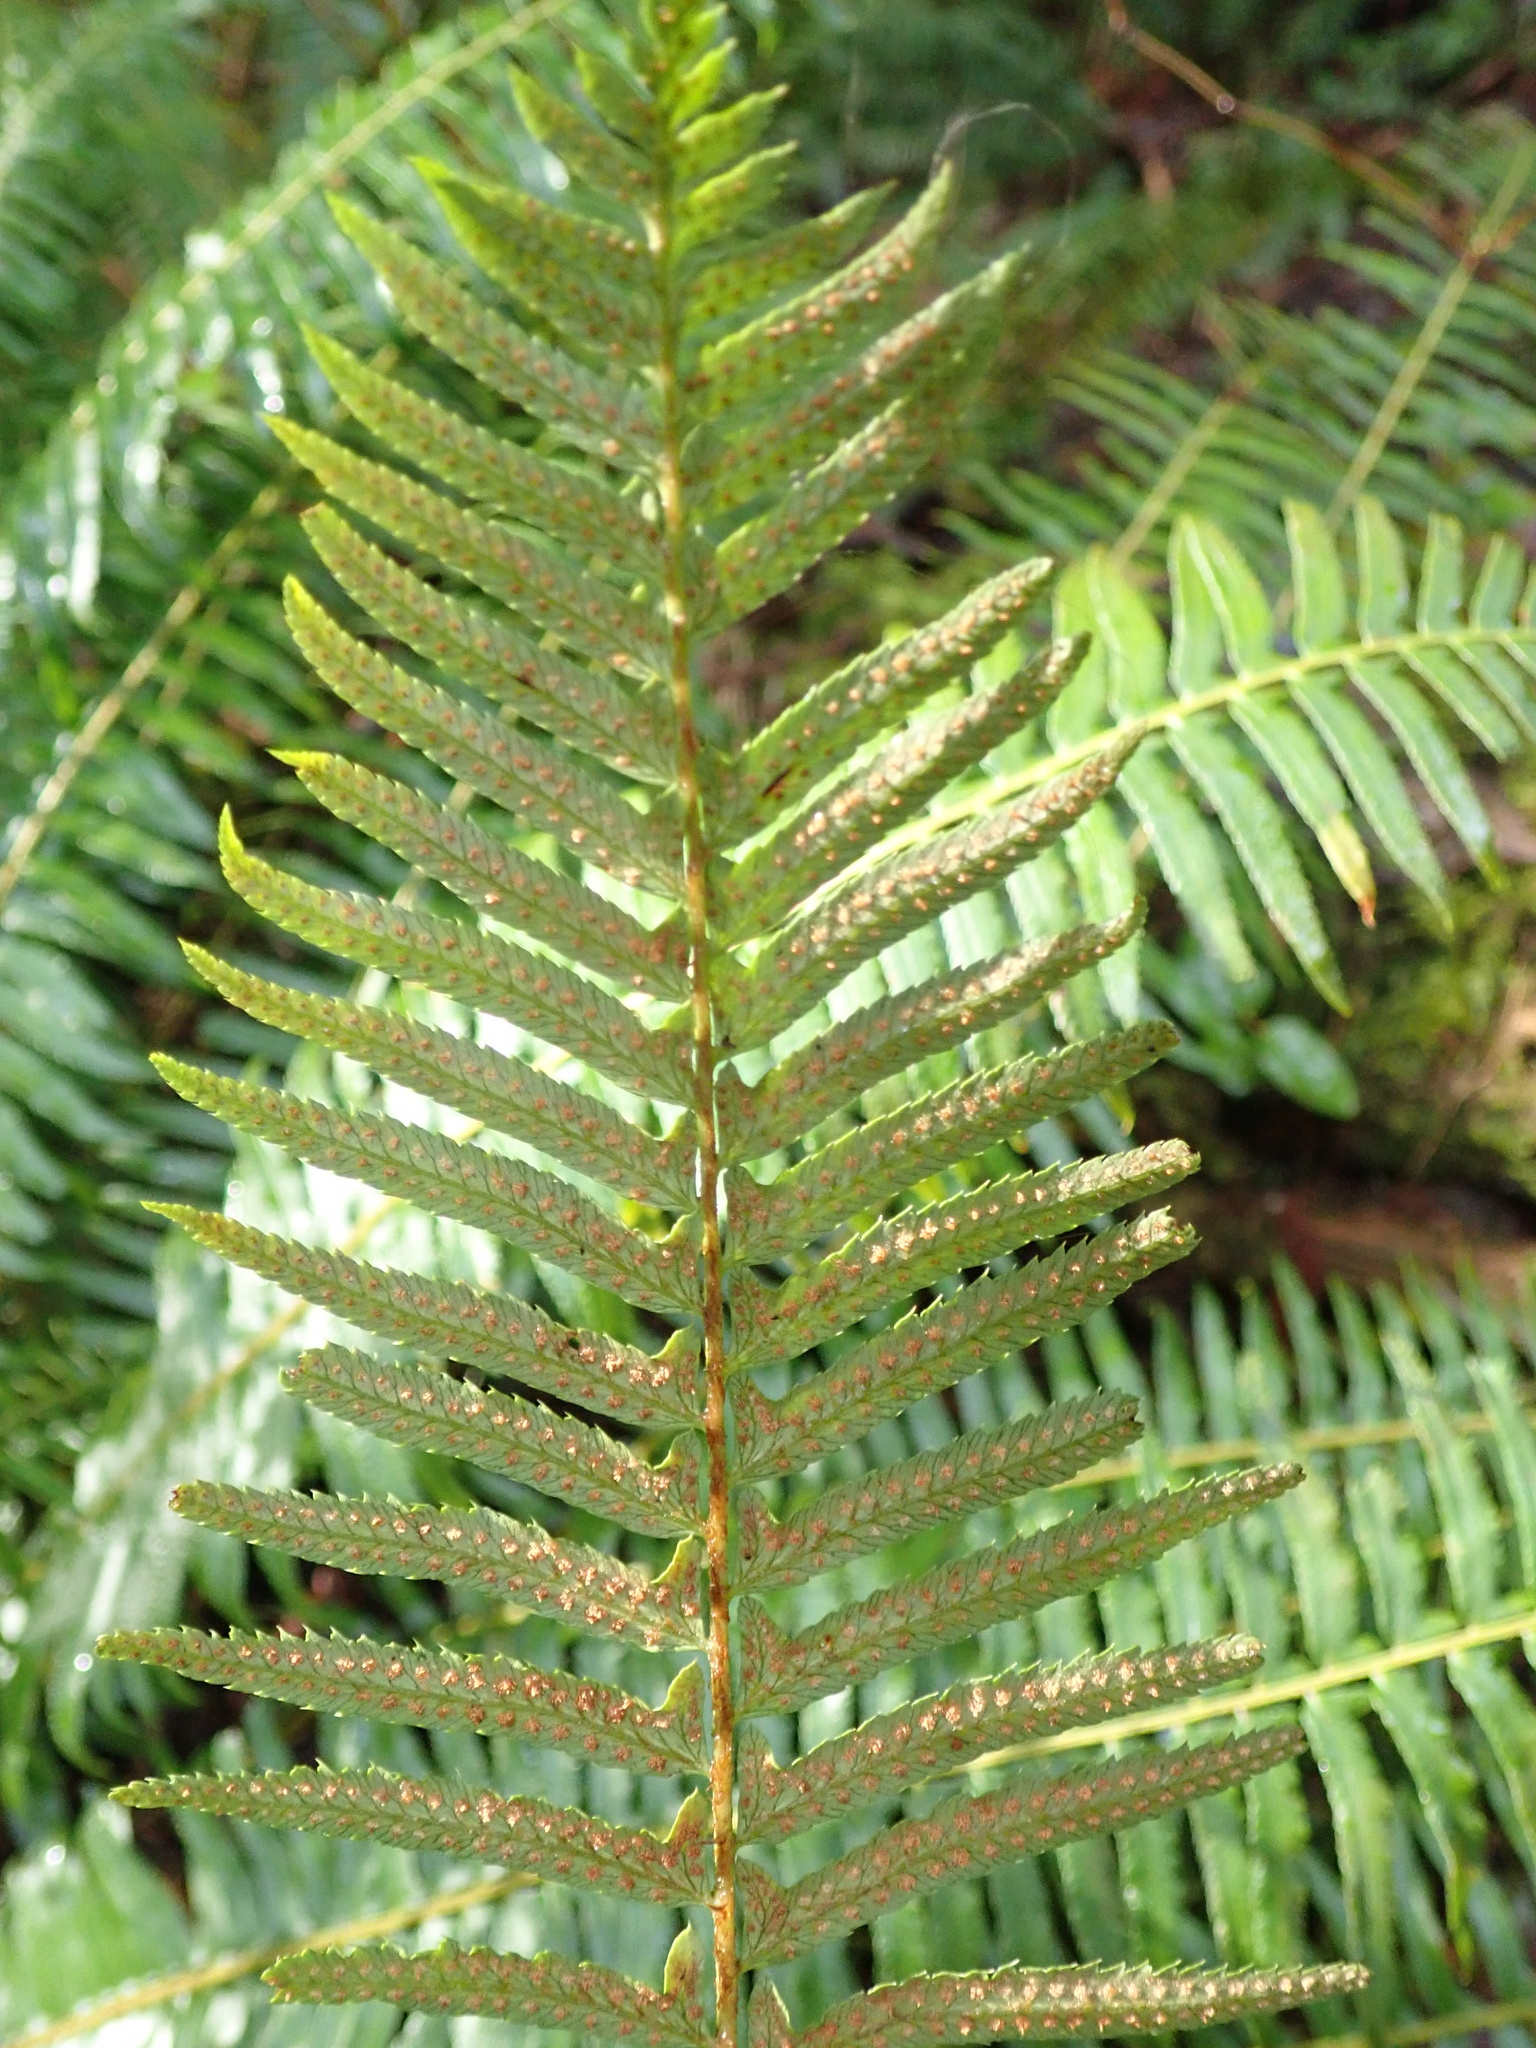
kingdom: Plantae
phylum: Tracheophyta
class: Polypodiopsida
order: Polypodiales
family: Dryopteridaceae
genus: Polystichum
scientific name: Polystichum munitum
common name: Western sword-fern
